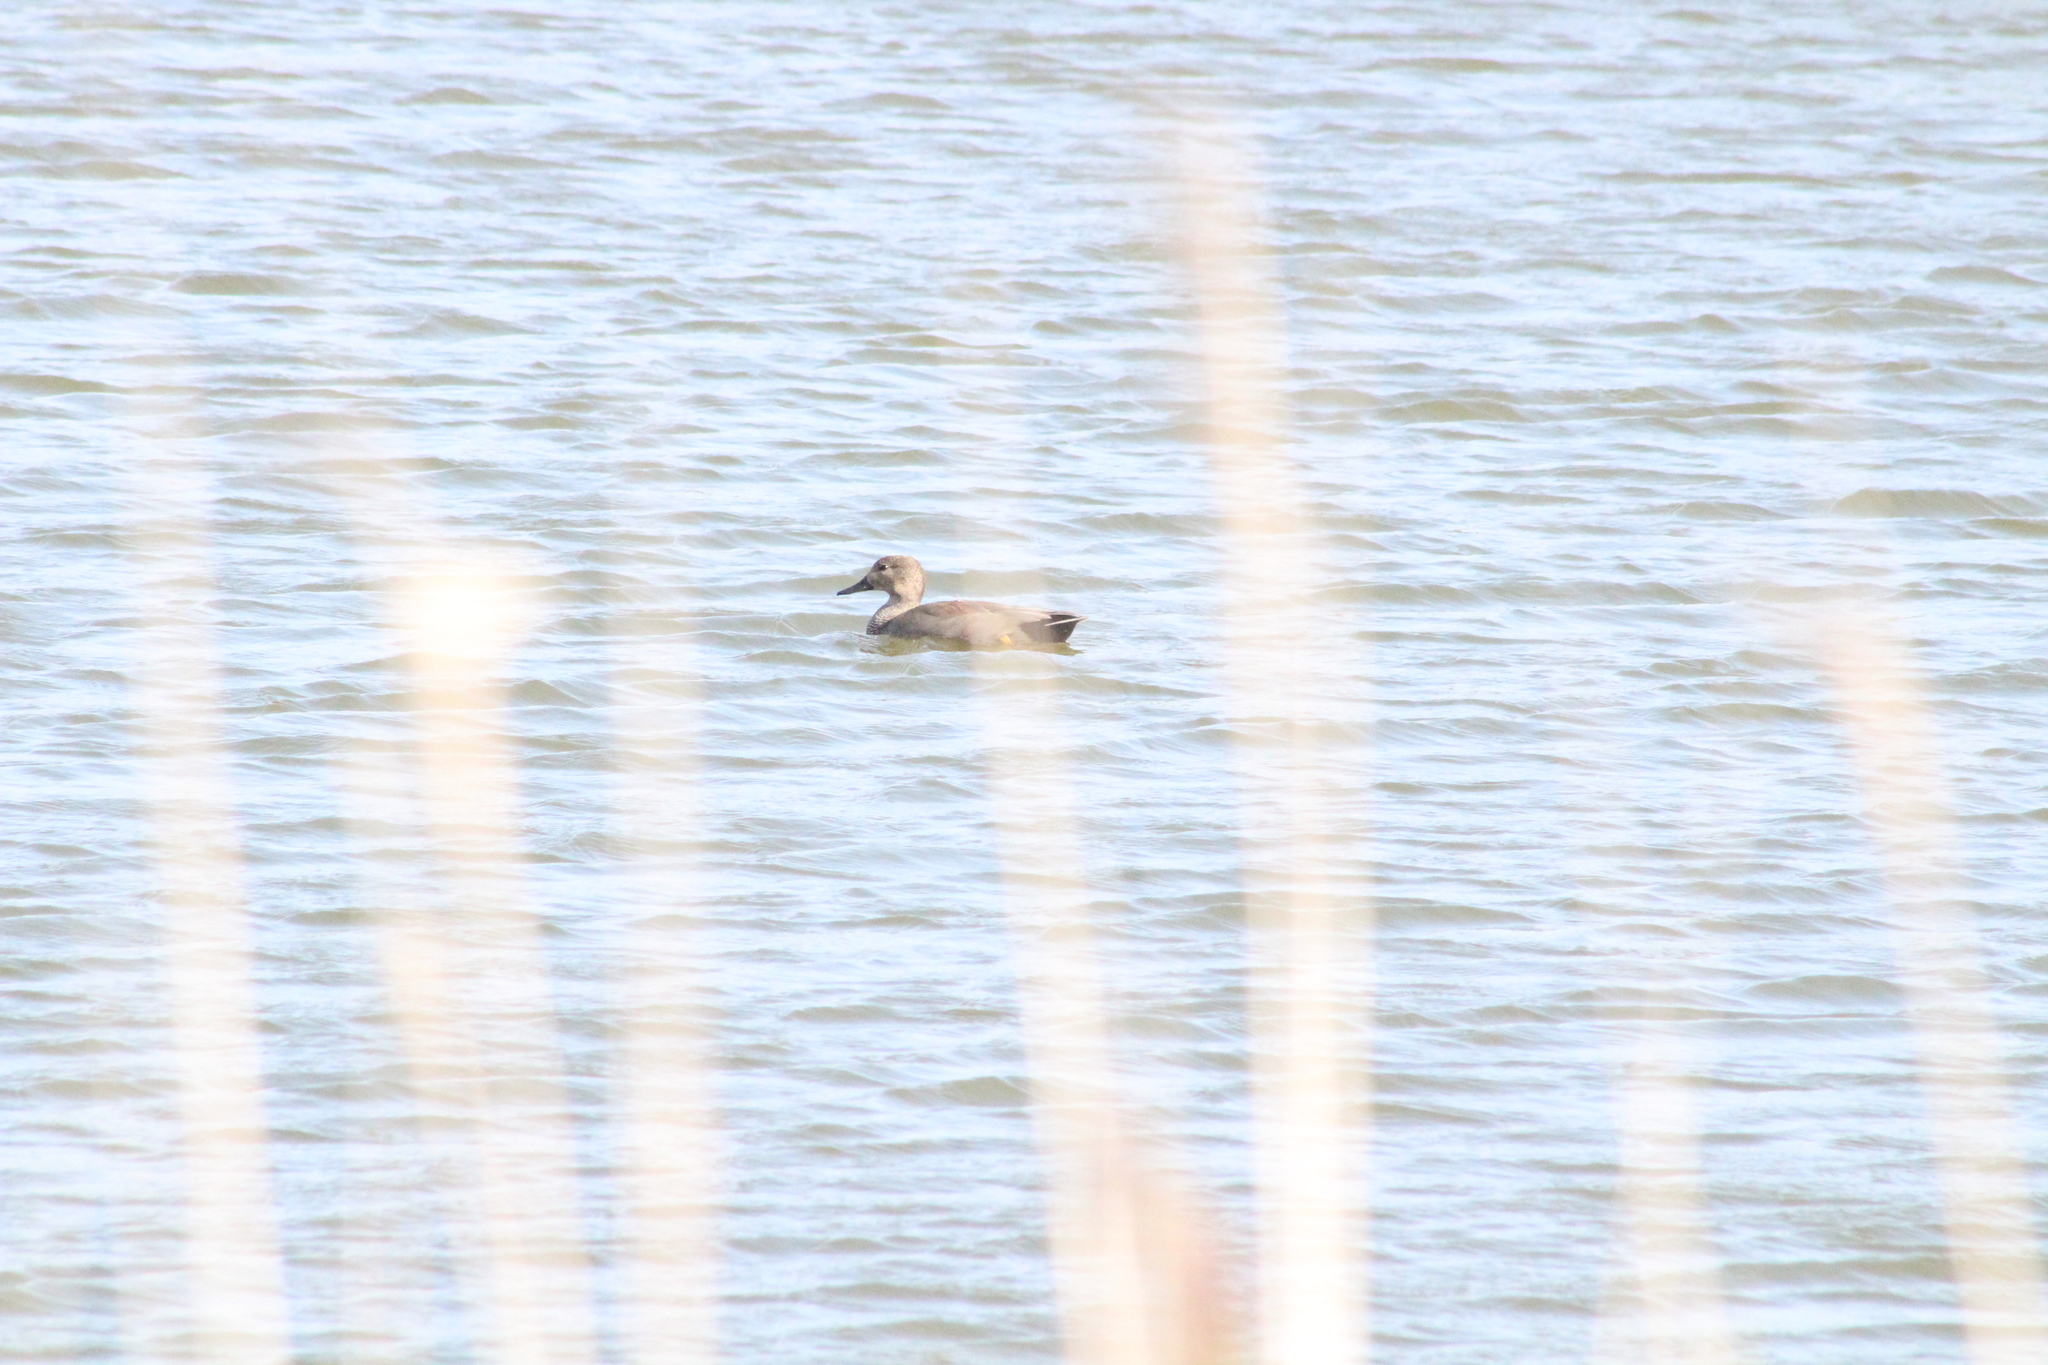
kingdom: Animalia
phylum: Chordata
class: Aves
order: Anseriformes
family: Anatidae
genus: Mareca
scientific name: Mareca strepera
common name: Gadwall
